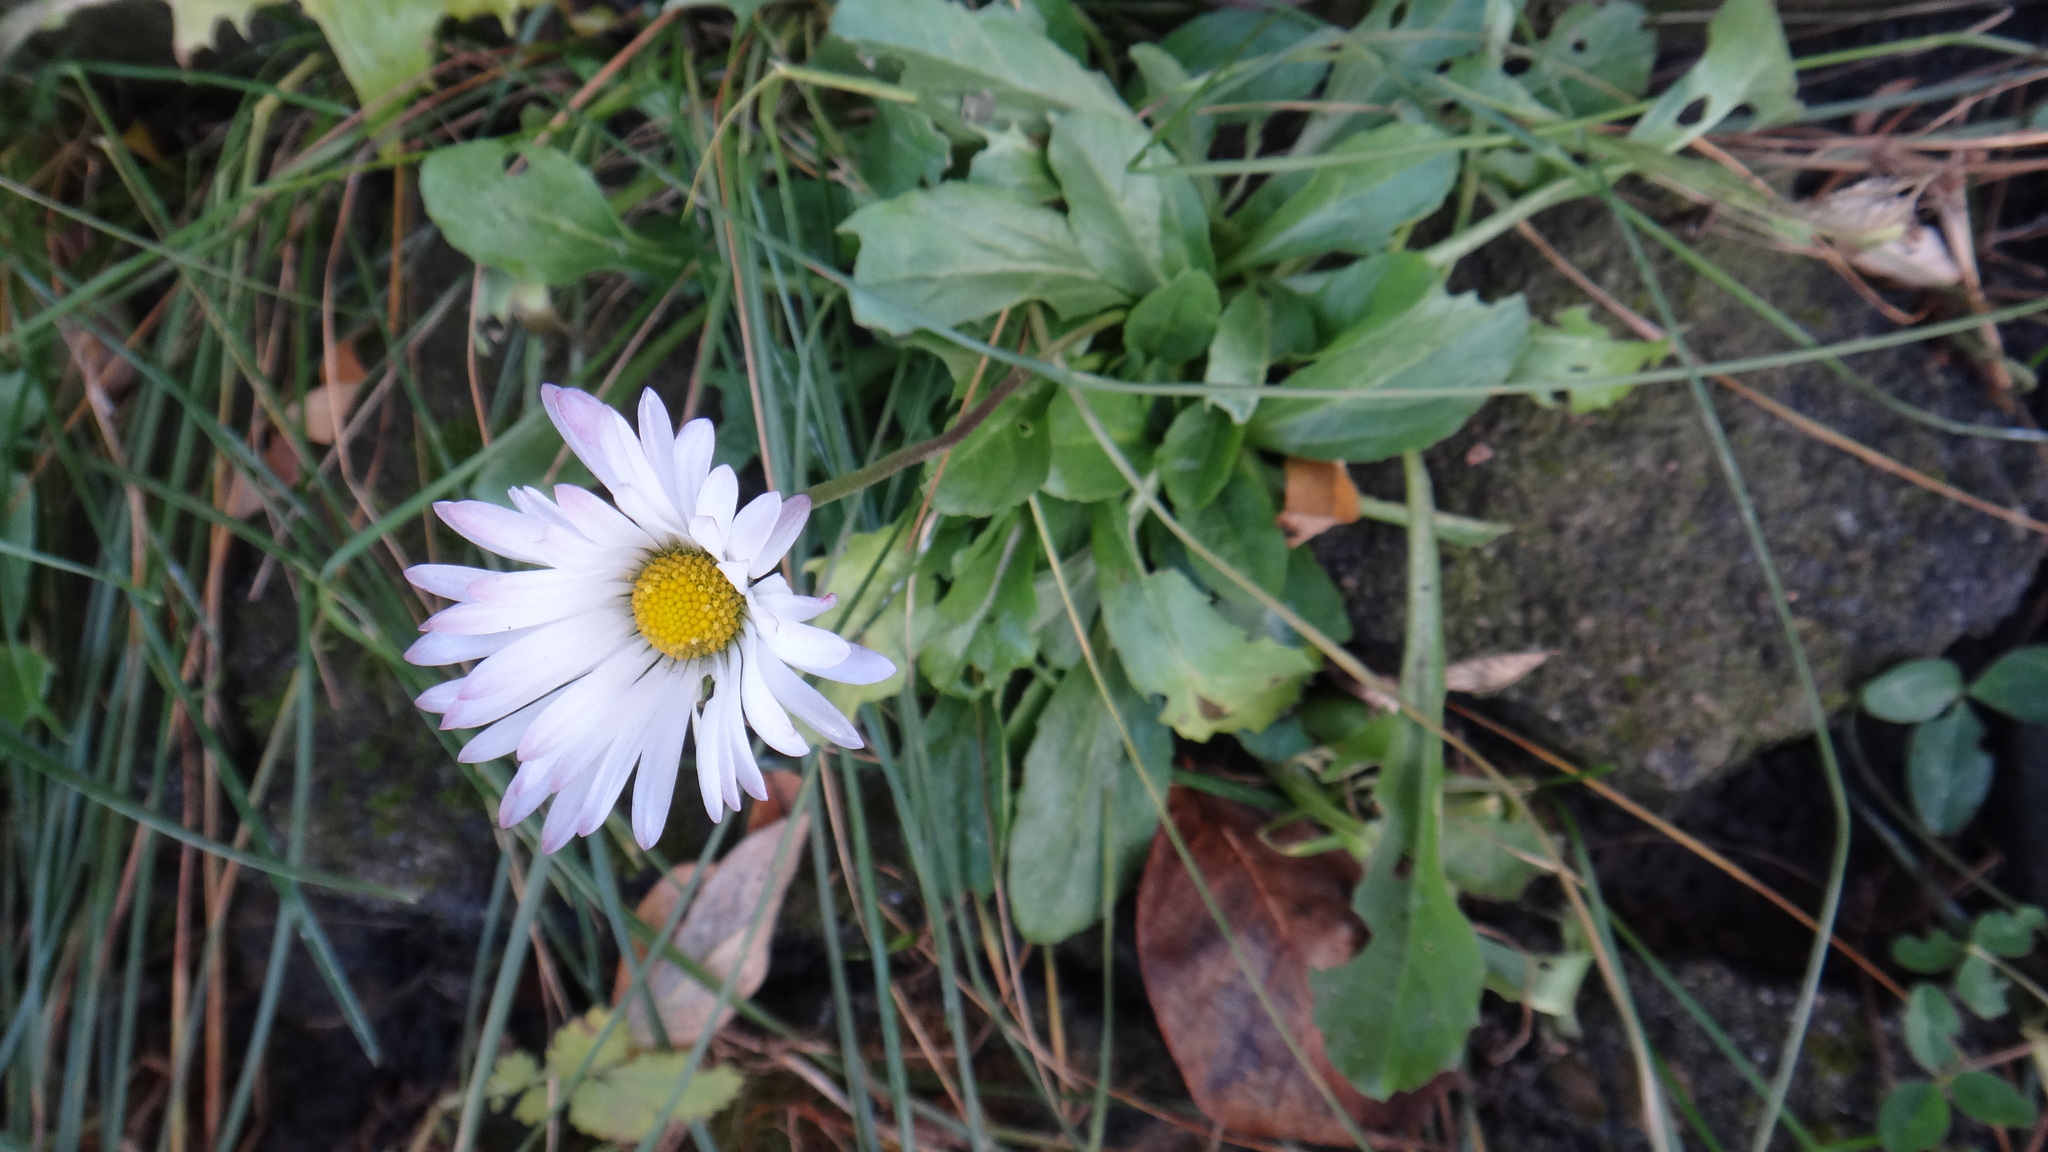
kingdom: Plantae
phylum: Tracheophyta
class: Magnoliopsida
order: Asterales
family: Asteraceae
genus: Bellis
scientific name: Bellis perennis
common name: Lawndaisy
